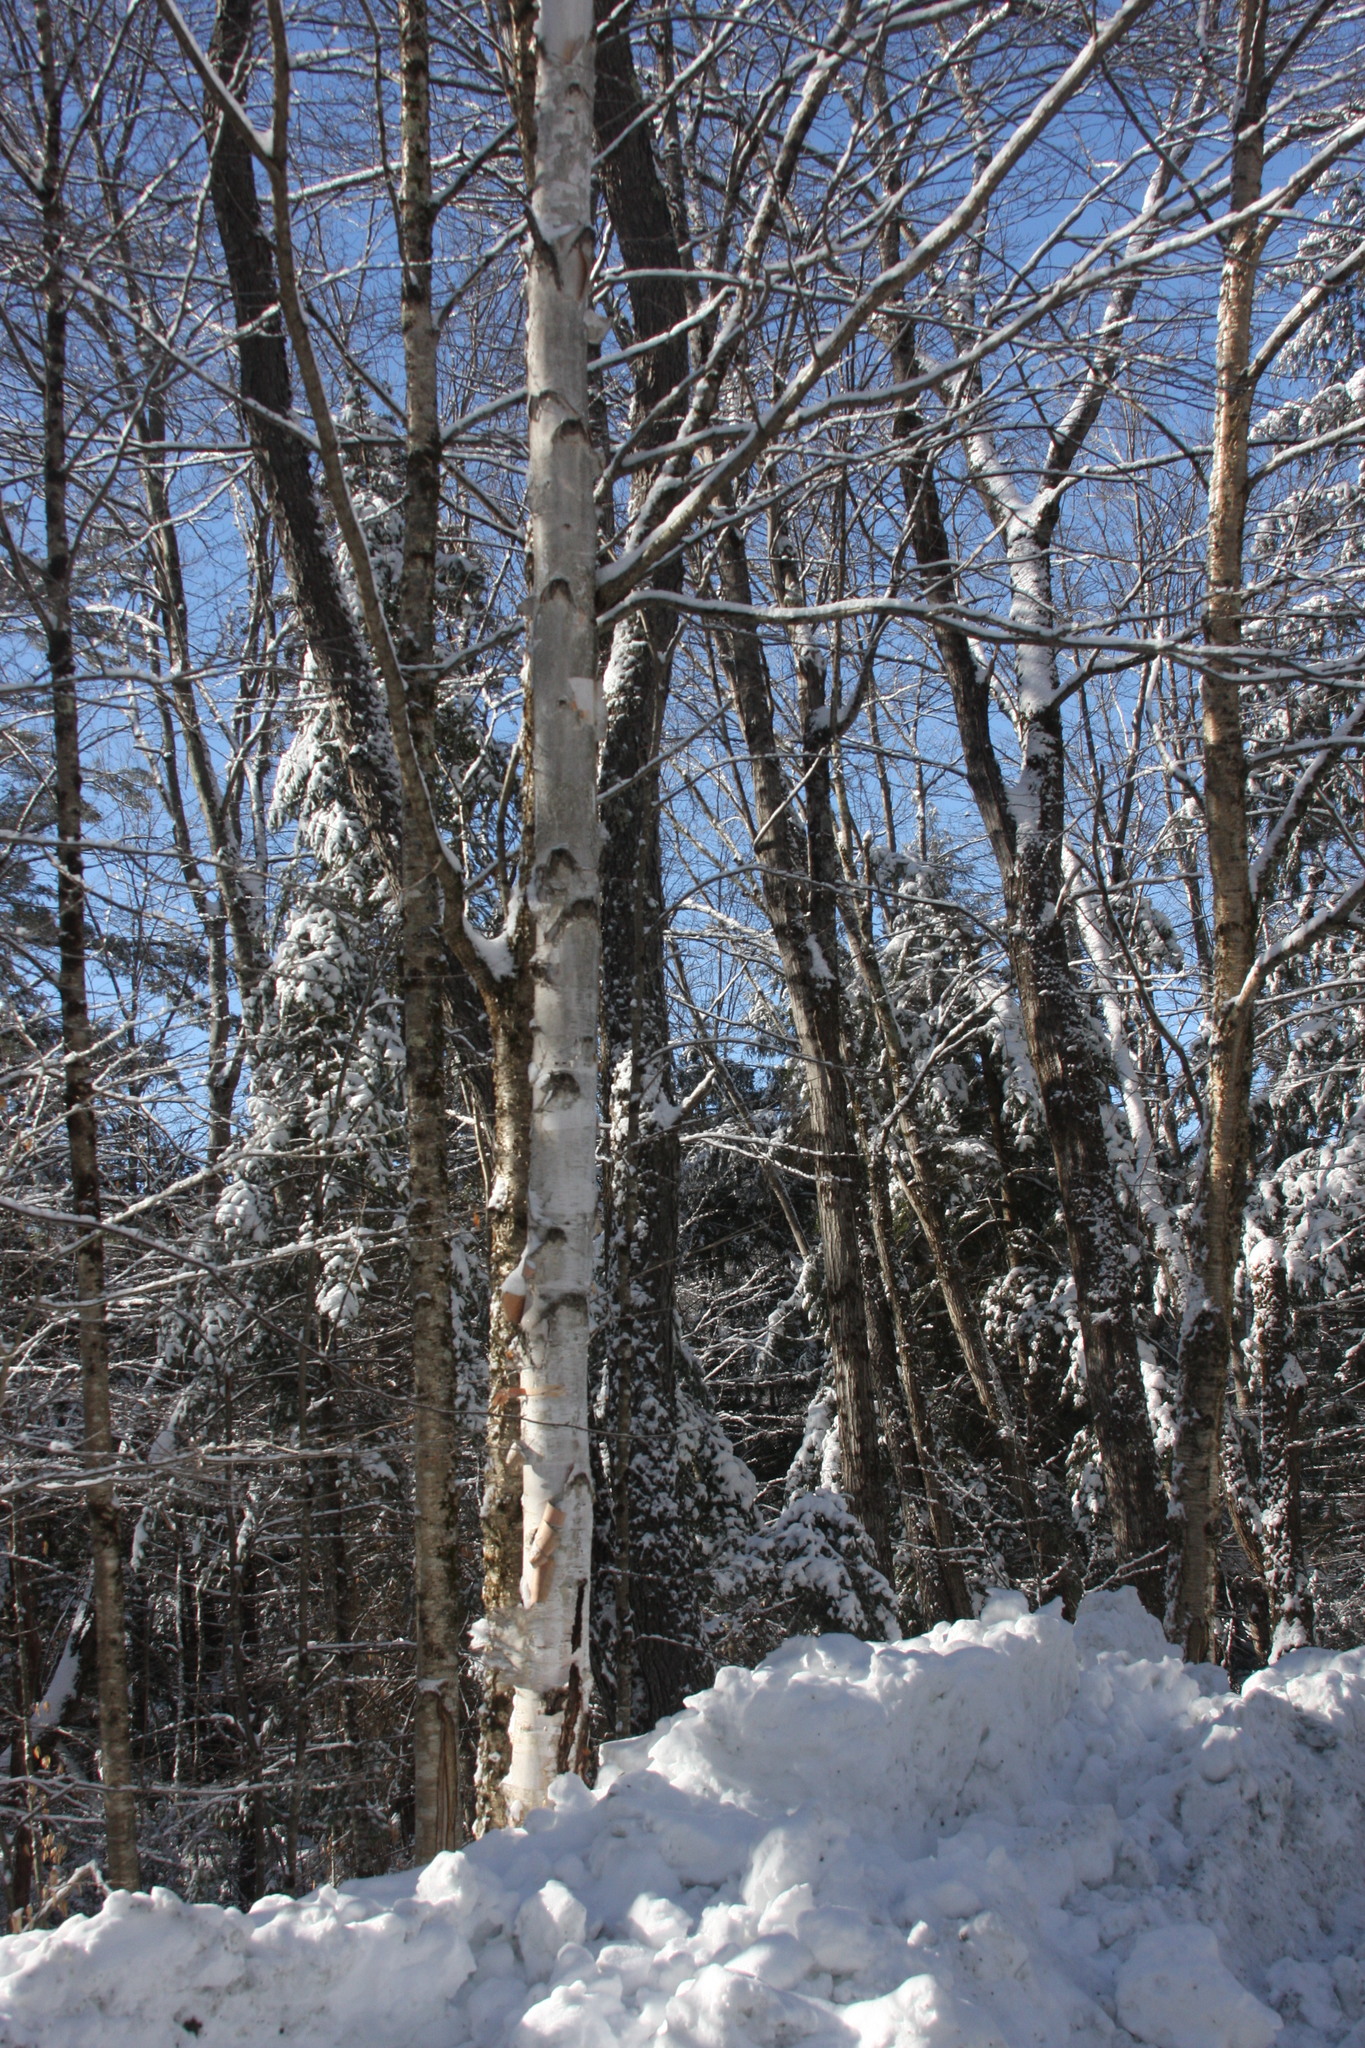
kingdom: Plantae
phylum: Tracheophyta
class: Magnoliopsida
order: Fagales
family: Betulaceae
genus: Betula
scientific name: Betula populifolia
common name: Fire birch
